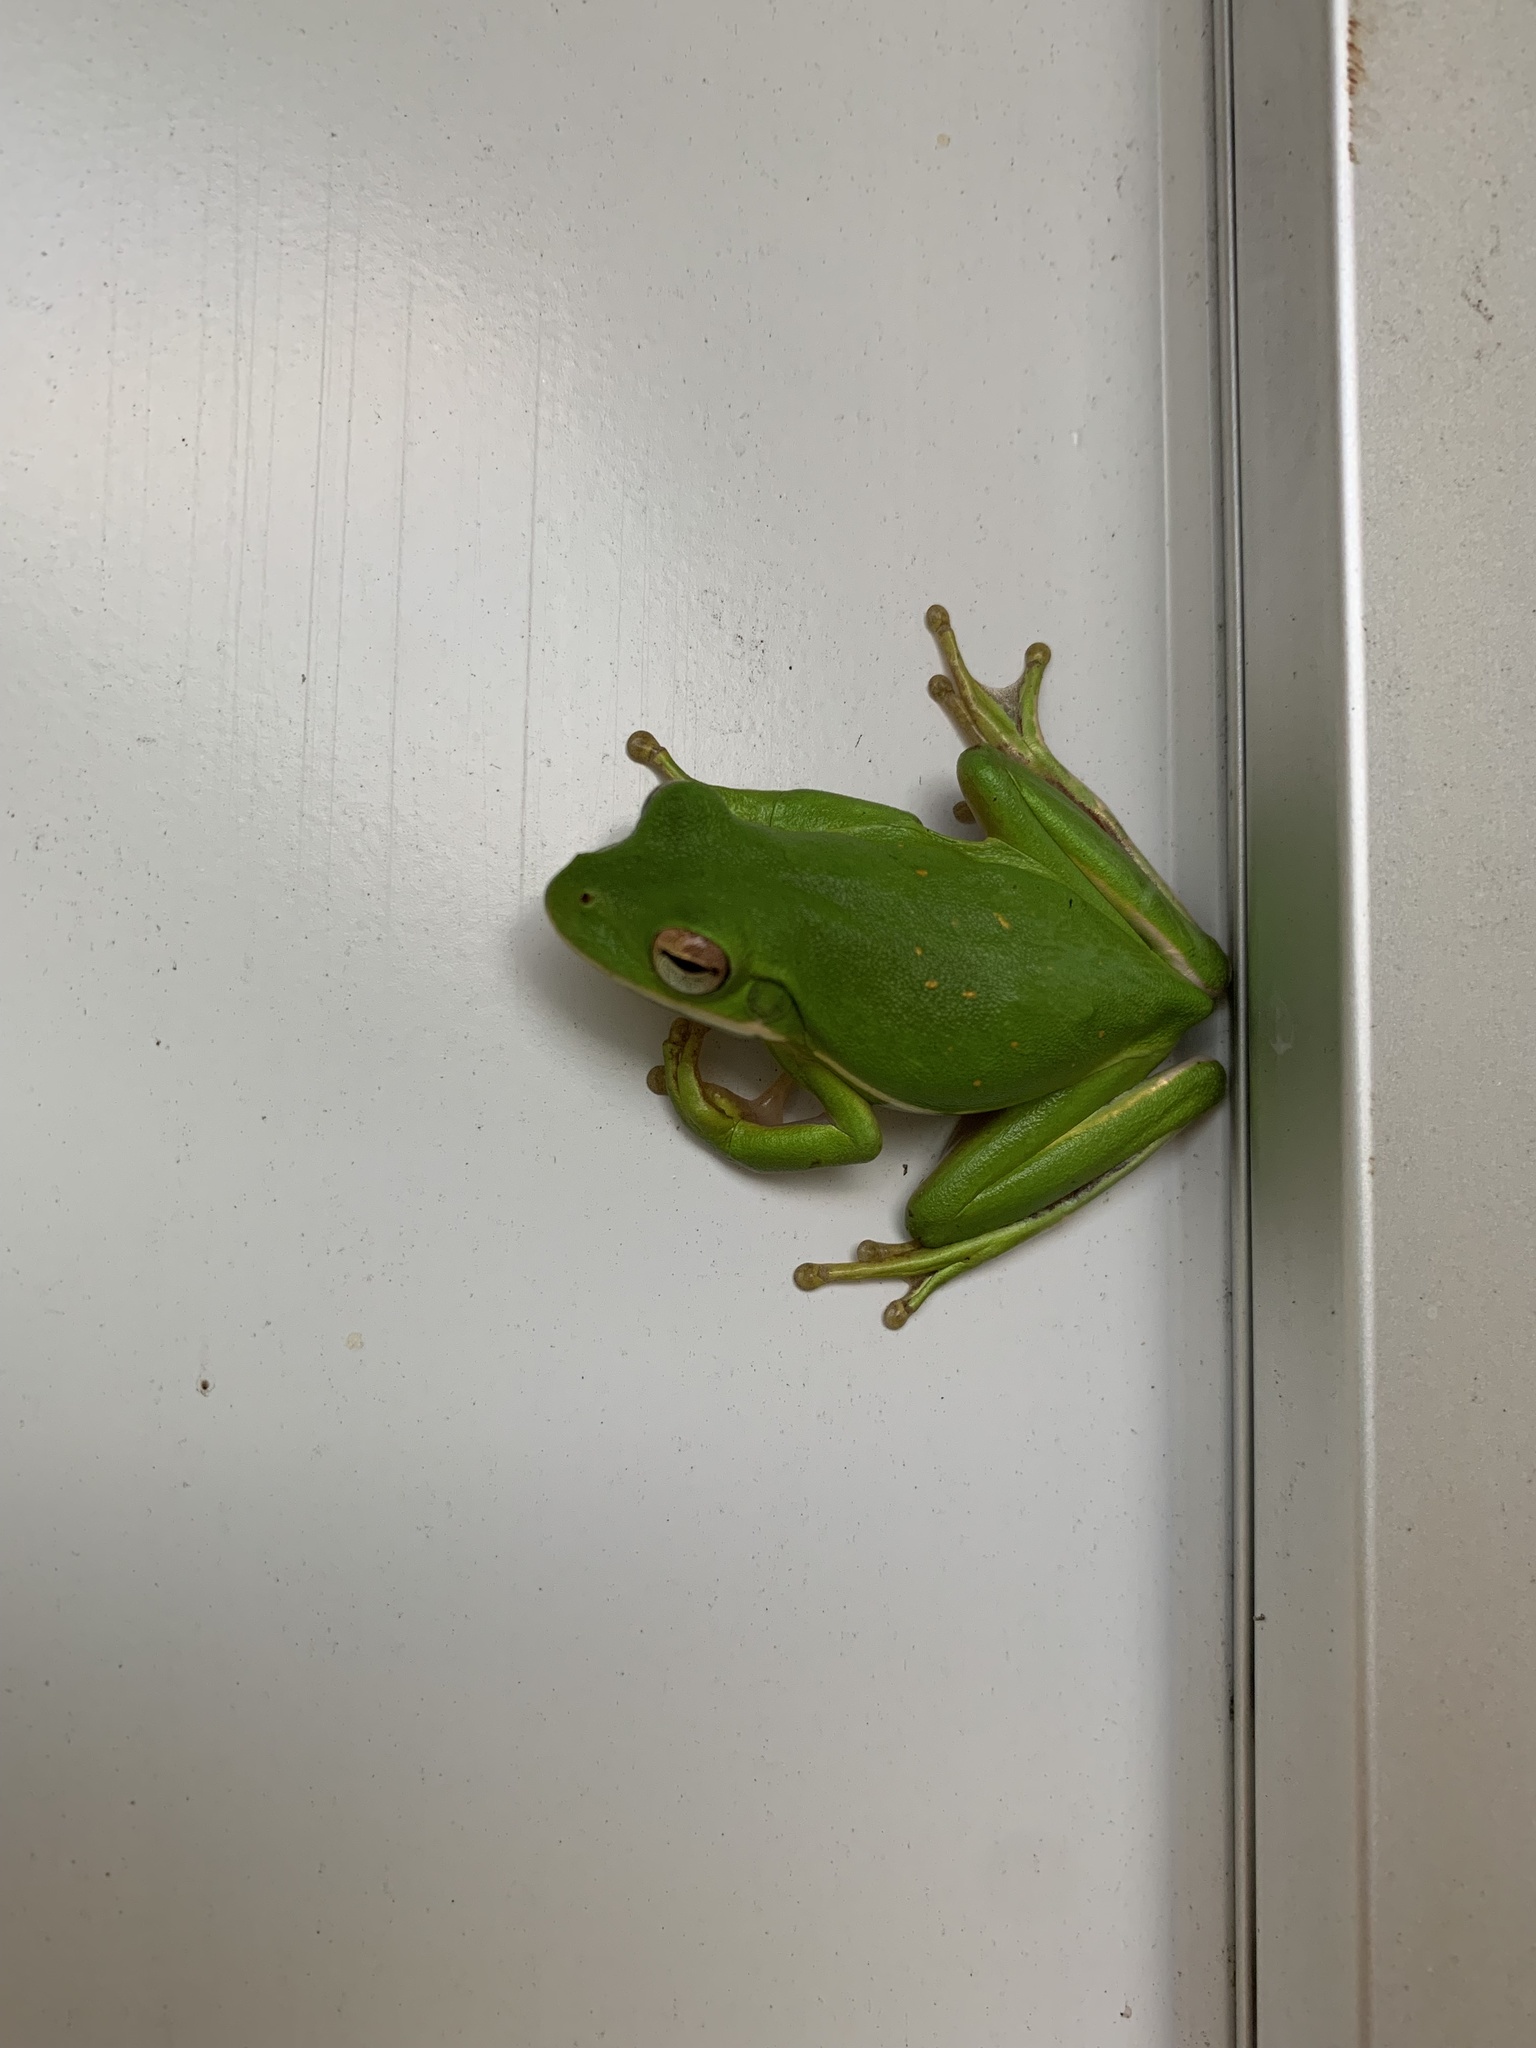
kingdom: Animalia
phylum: Chordata
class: Amphibia
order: Anura
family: Hylidae
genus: Dryophytes
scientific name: Dryophytes cinereus
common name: Green treefrog
